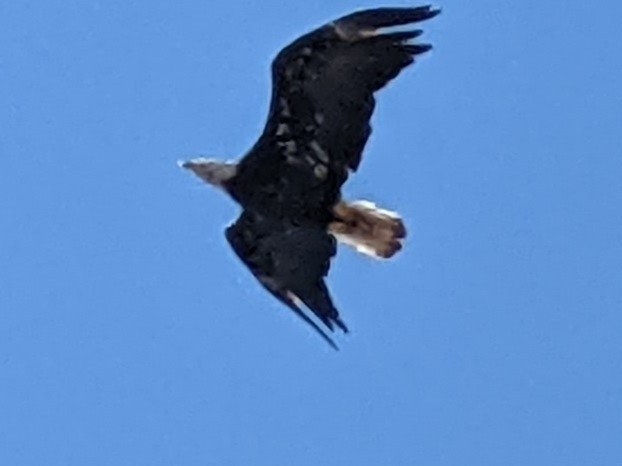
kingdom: Animalia
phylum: Chordata
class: Aves
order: Accipitriformes
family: Accipitridae
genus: Haliaeetus
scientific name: Haliaeetus leucocephalus
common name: Bald eagle
